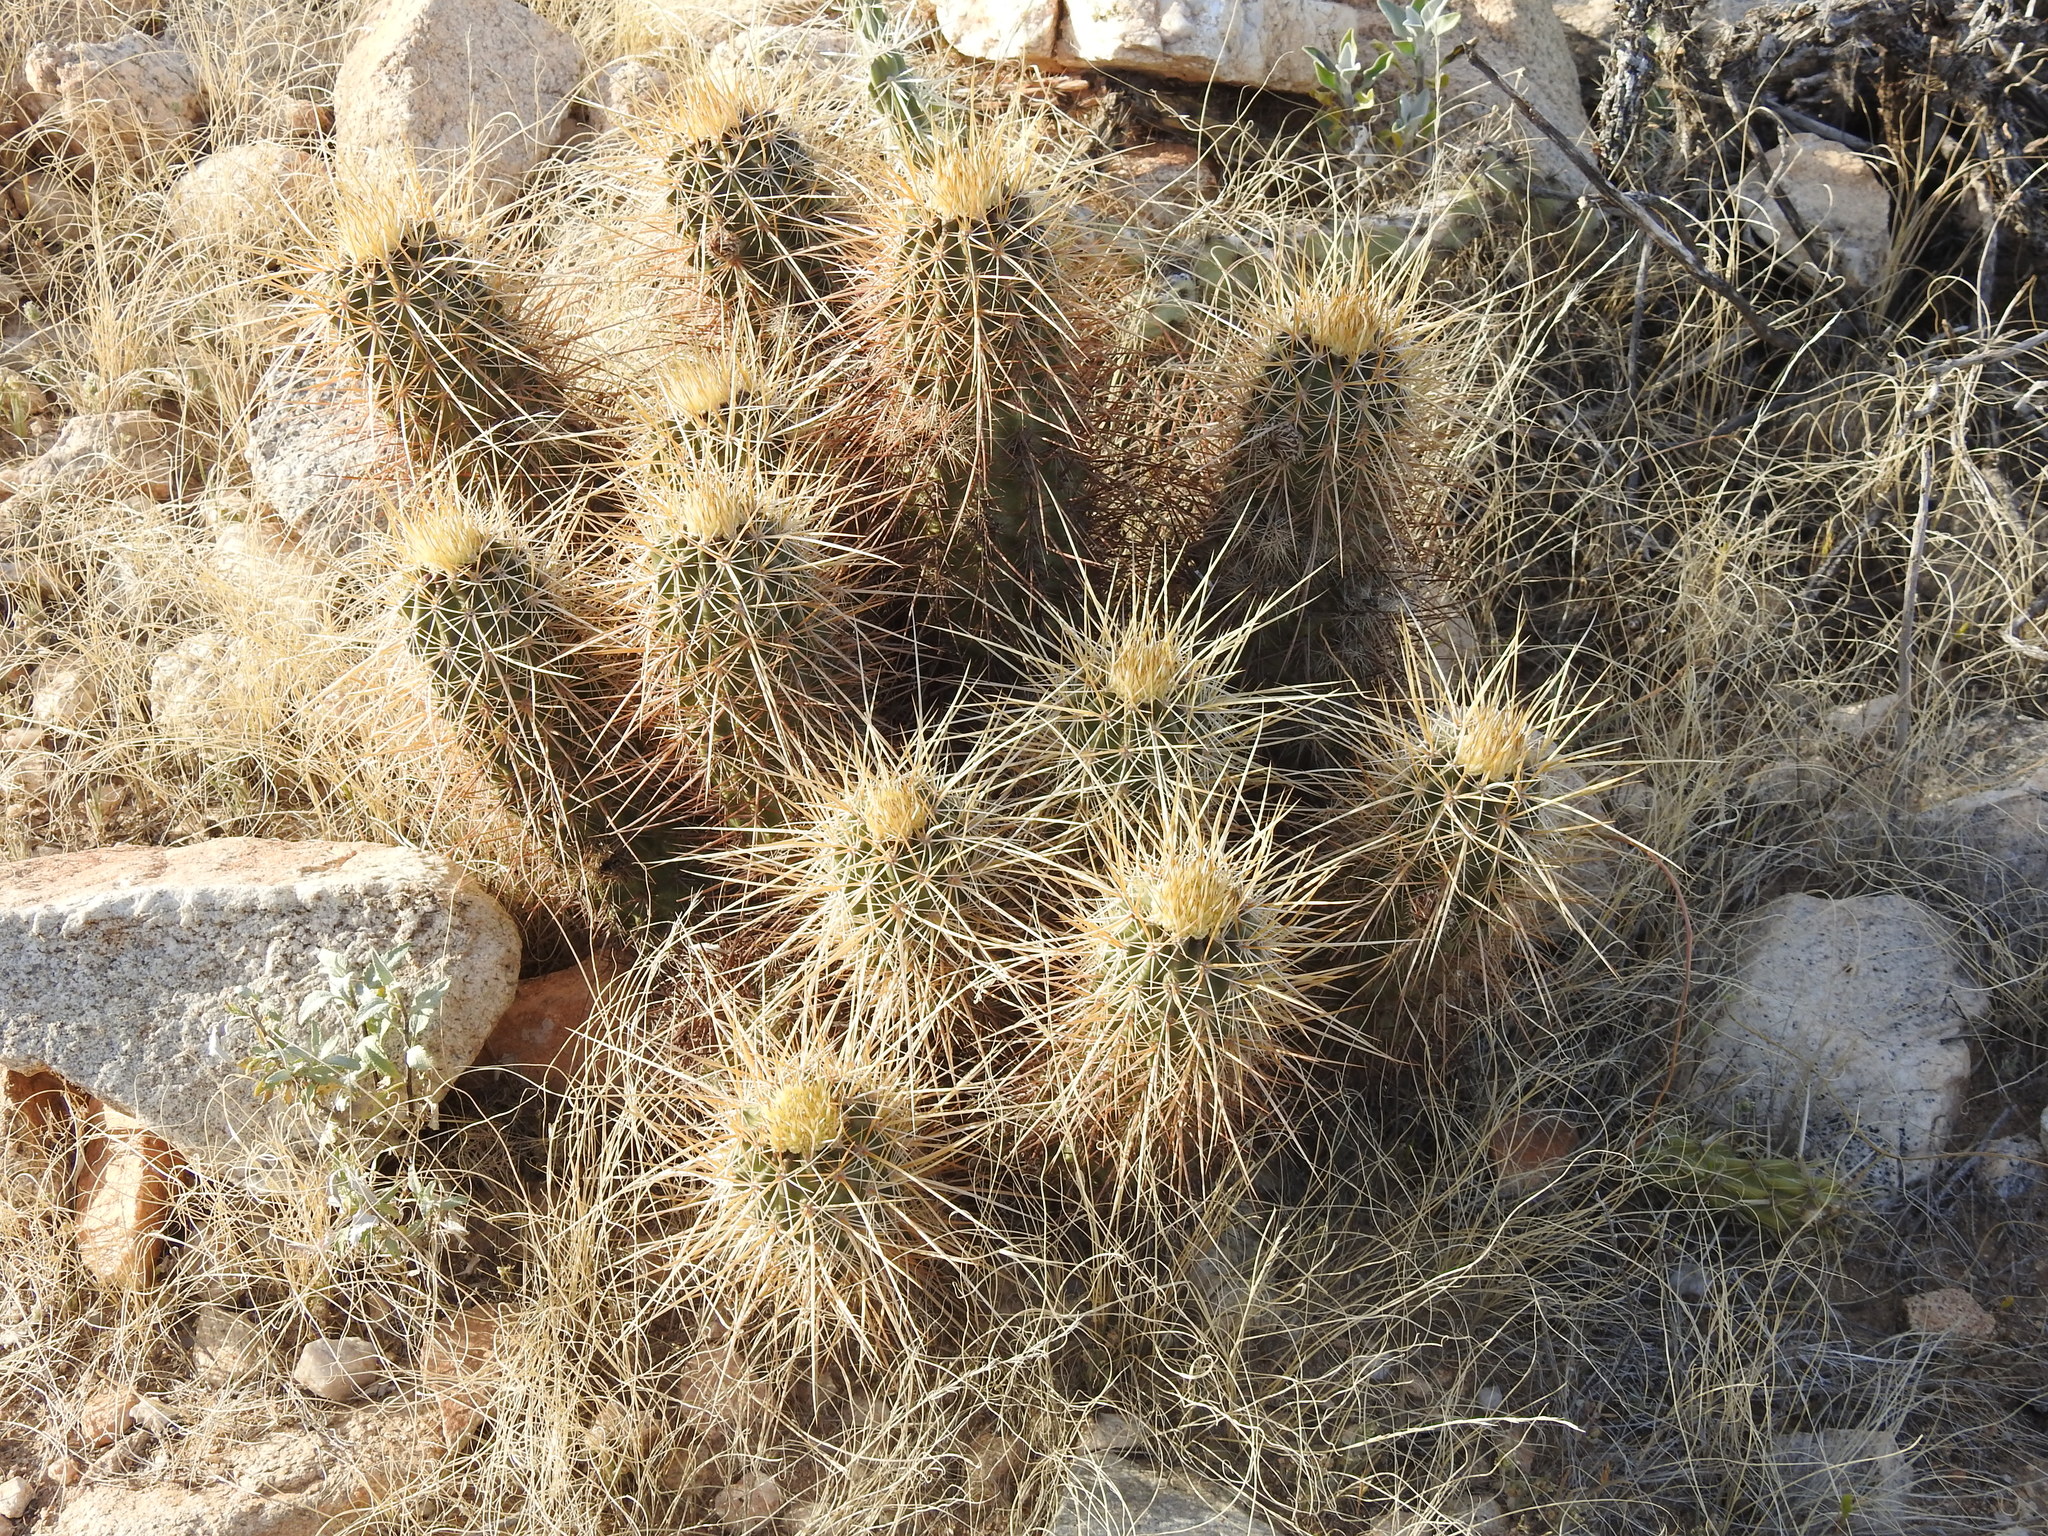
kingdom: Plantae
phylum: Tracheophyta
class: Magnoliopsida
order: Caryophyllales
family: Cactaceae
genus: Echinocereus
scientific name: Echinocereus engelmannii
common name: Engelmann's hedgehog cactus
